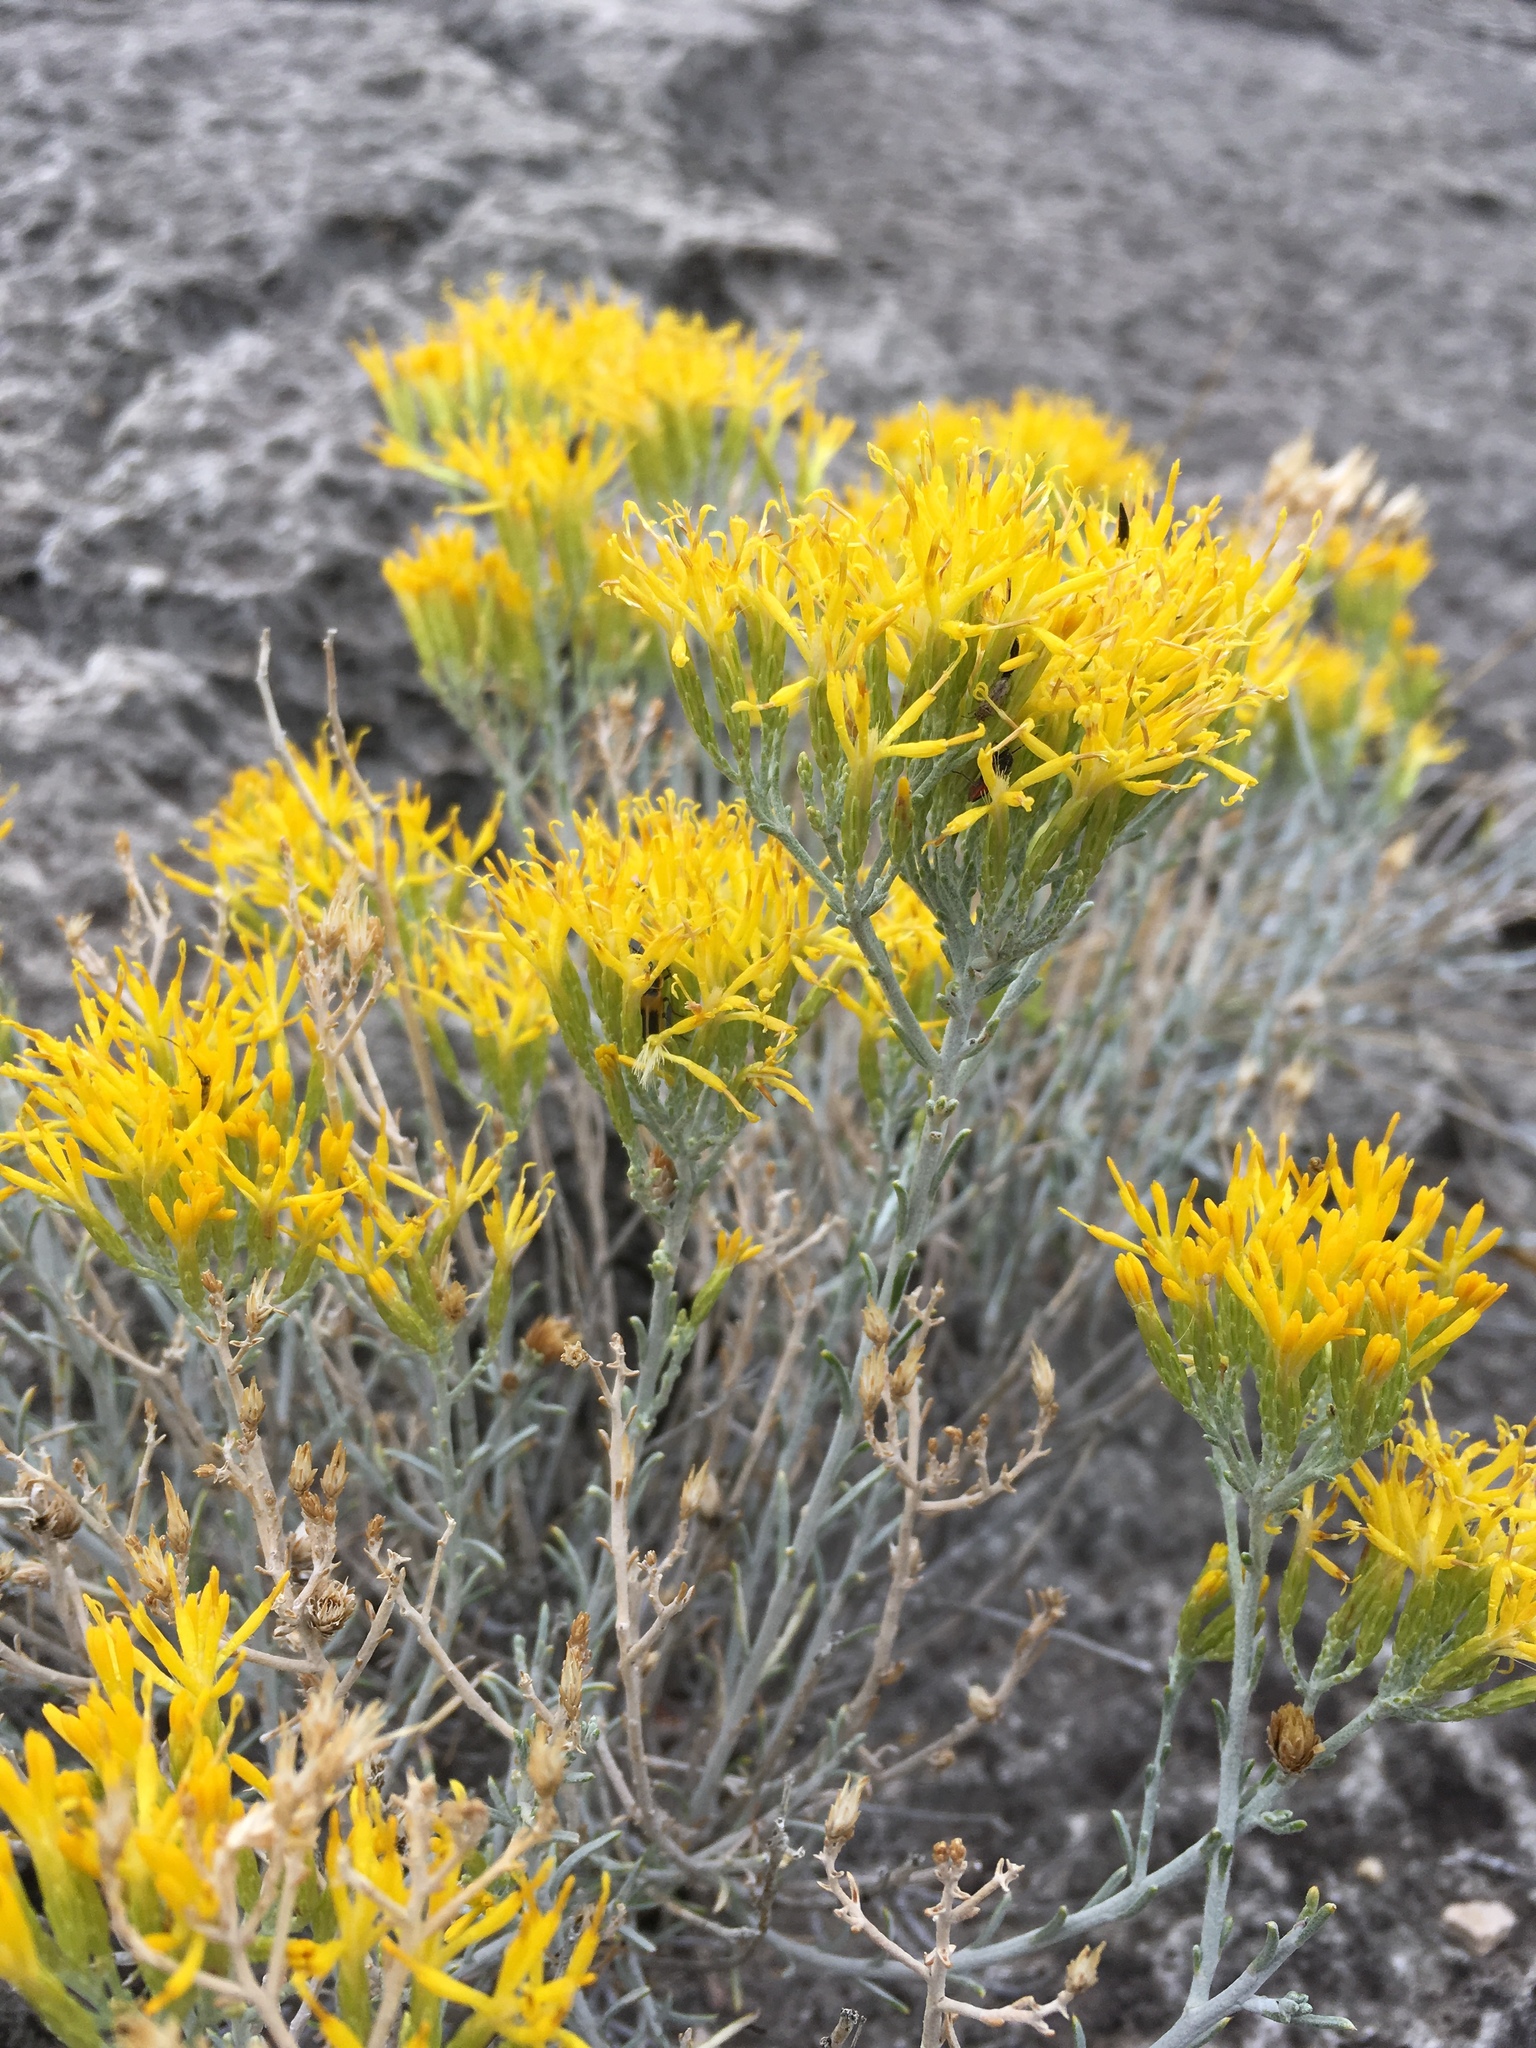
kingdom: Plantae
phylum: Tracheophyta
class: Magnoliopsida
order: Asterales
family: Asteraceae
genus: Ericameria
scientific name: Ericameria nauseosa
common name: Rubber rabbitbrush
